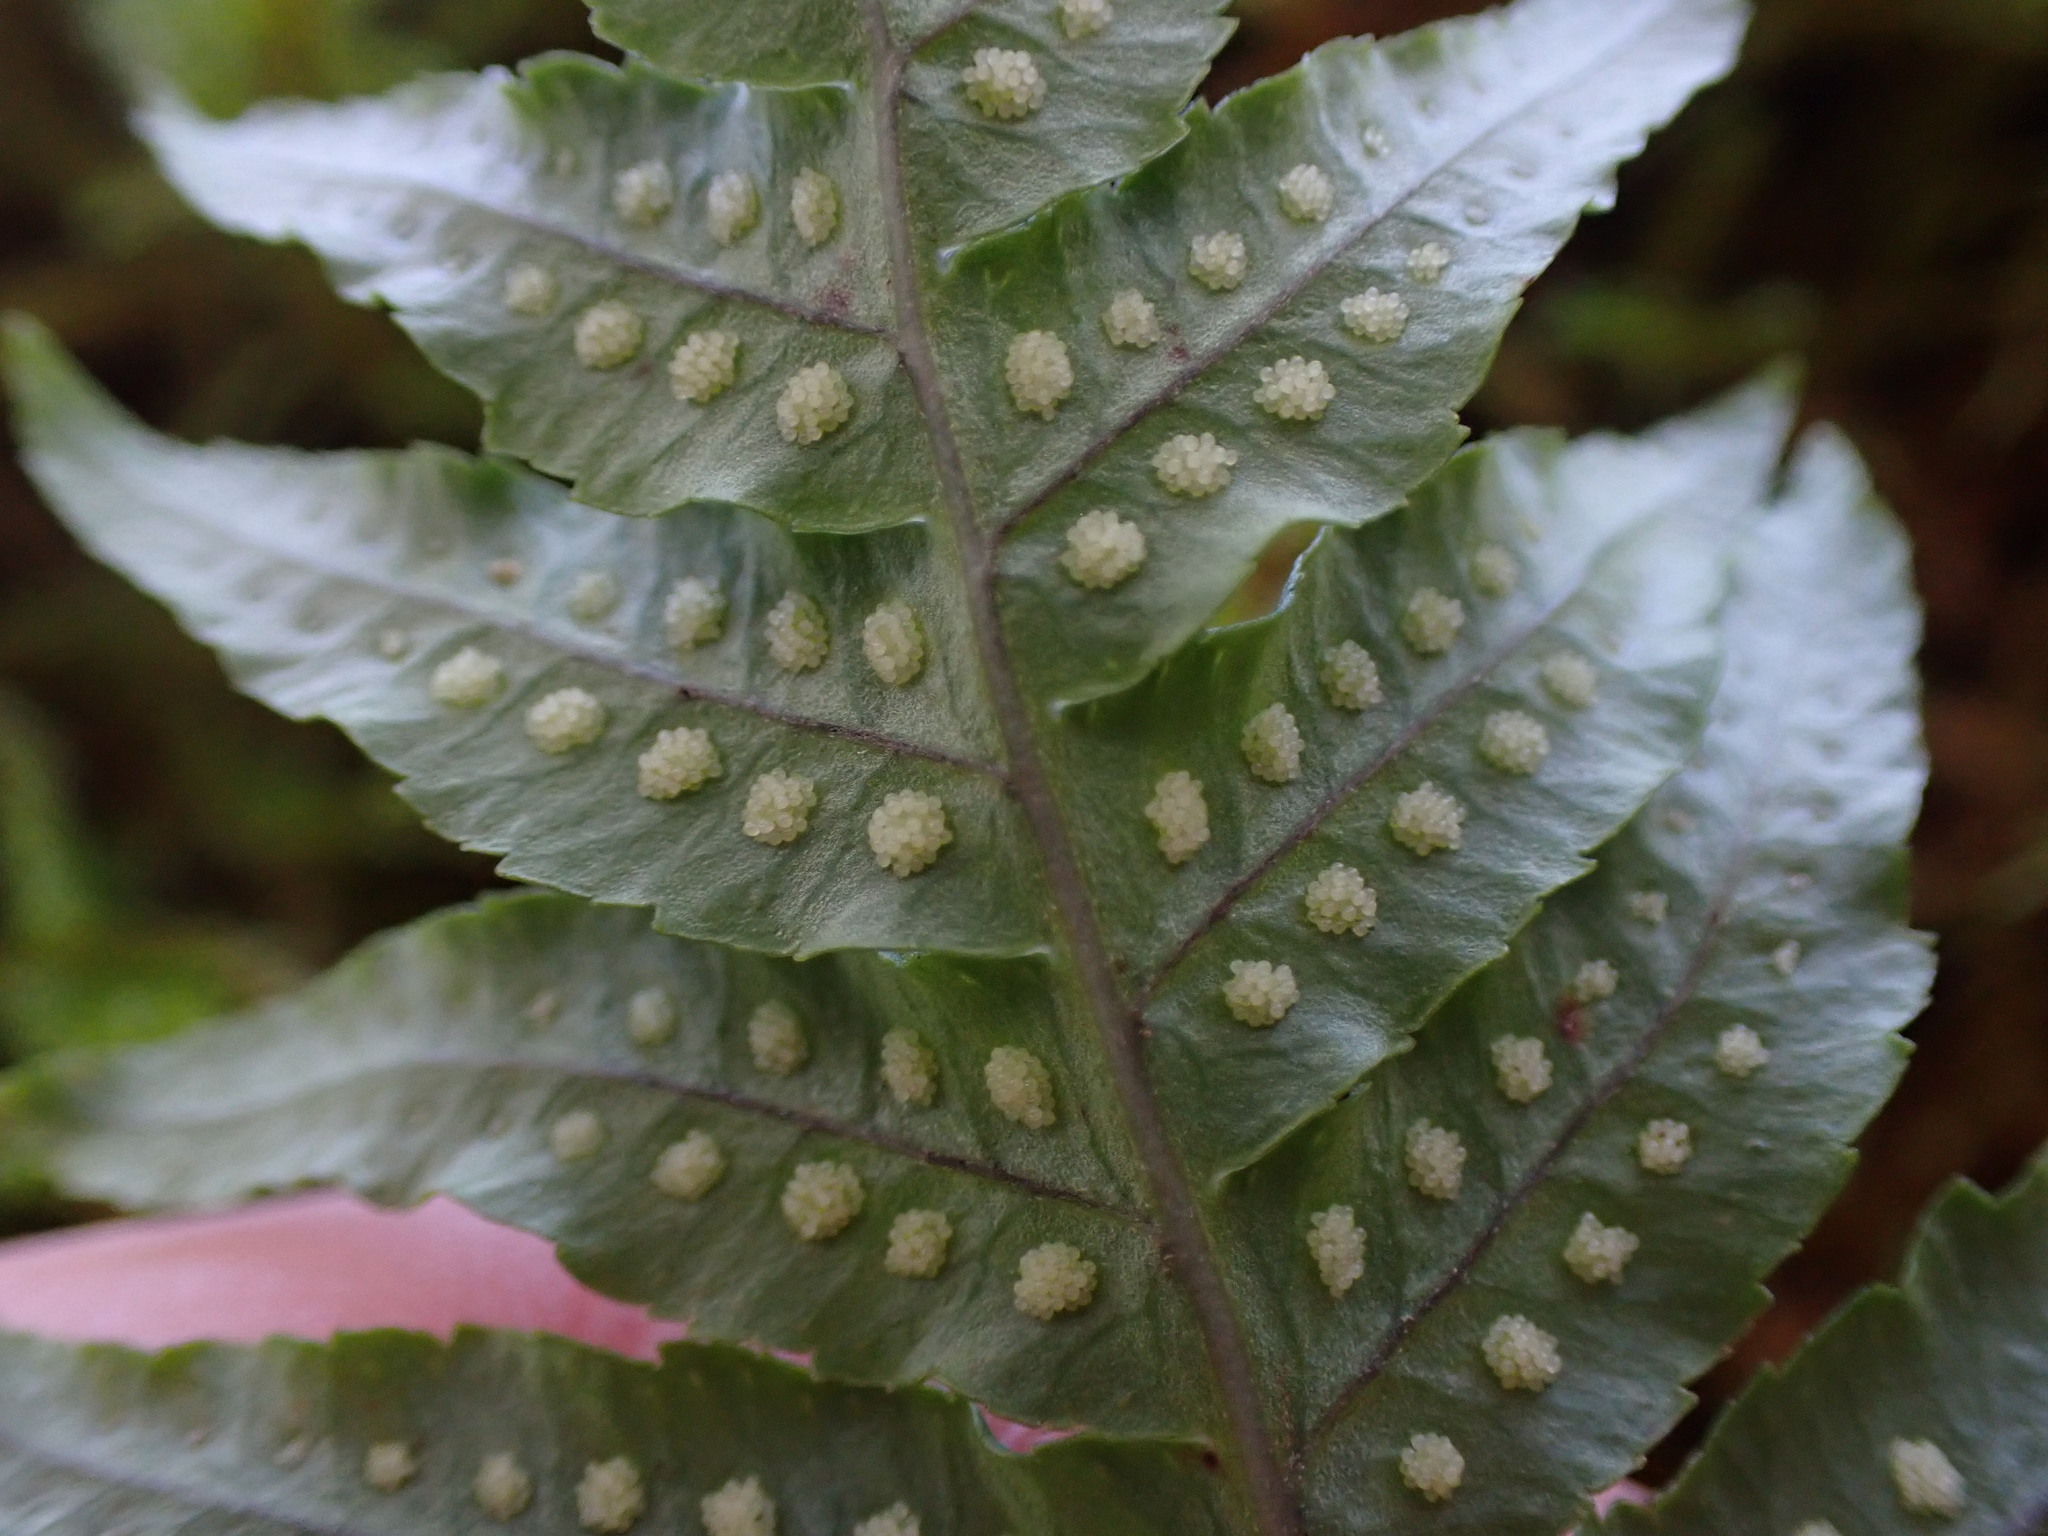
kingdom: Plantae
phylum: Tracheophyta
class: Polypodiopsida
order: Polypodiales
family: Polypodiaceae
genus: Polypodium
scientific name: Polypodium glycyrrhiza
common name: Licorice fern
